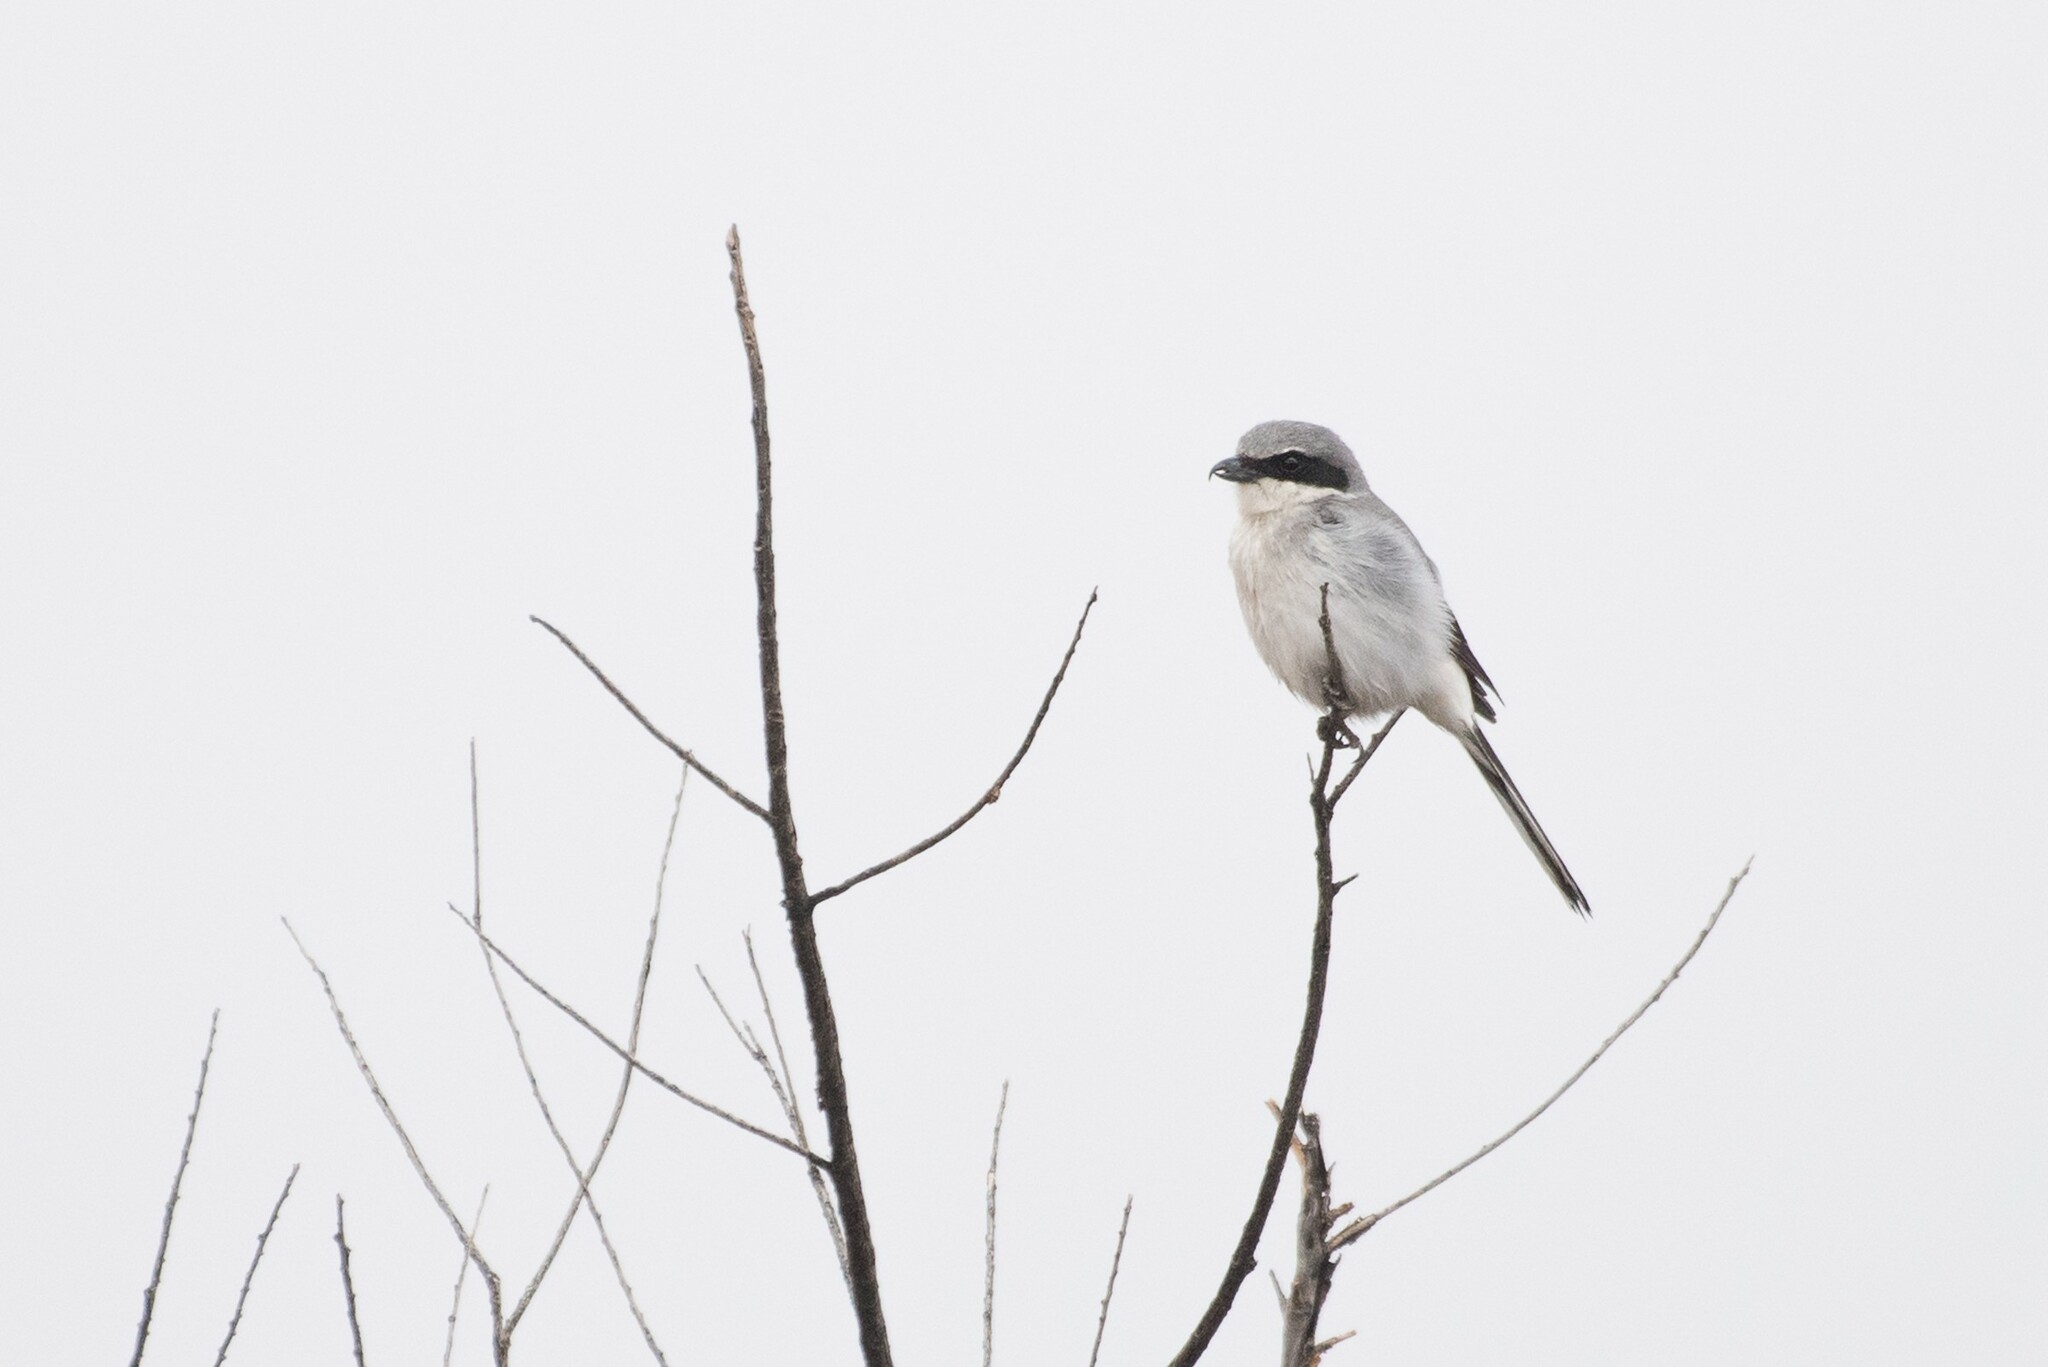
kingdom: Animalia
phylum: Chordata
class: Aves
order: Passeriformes
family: Laniidae
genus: Lanius
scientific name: Lanius ludovicianus
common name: Loggerhead shrike
